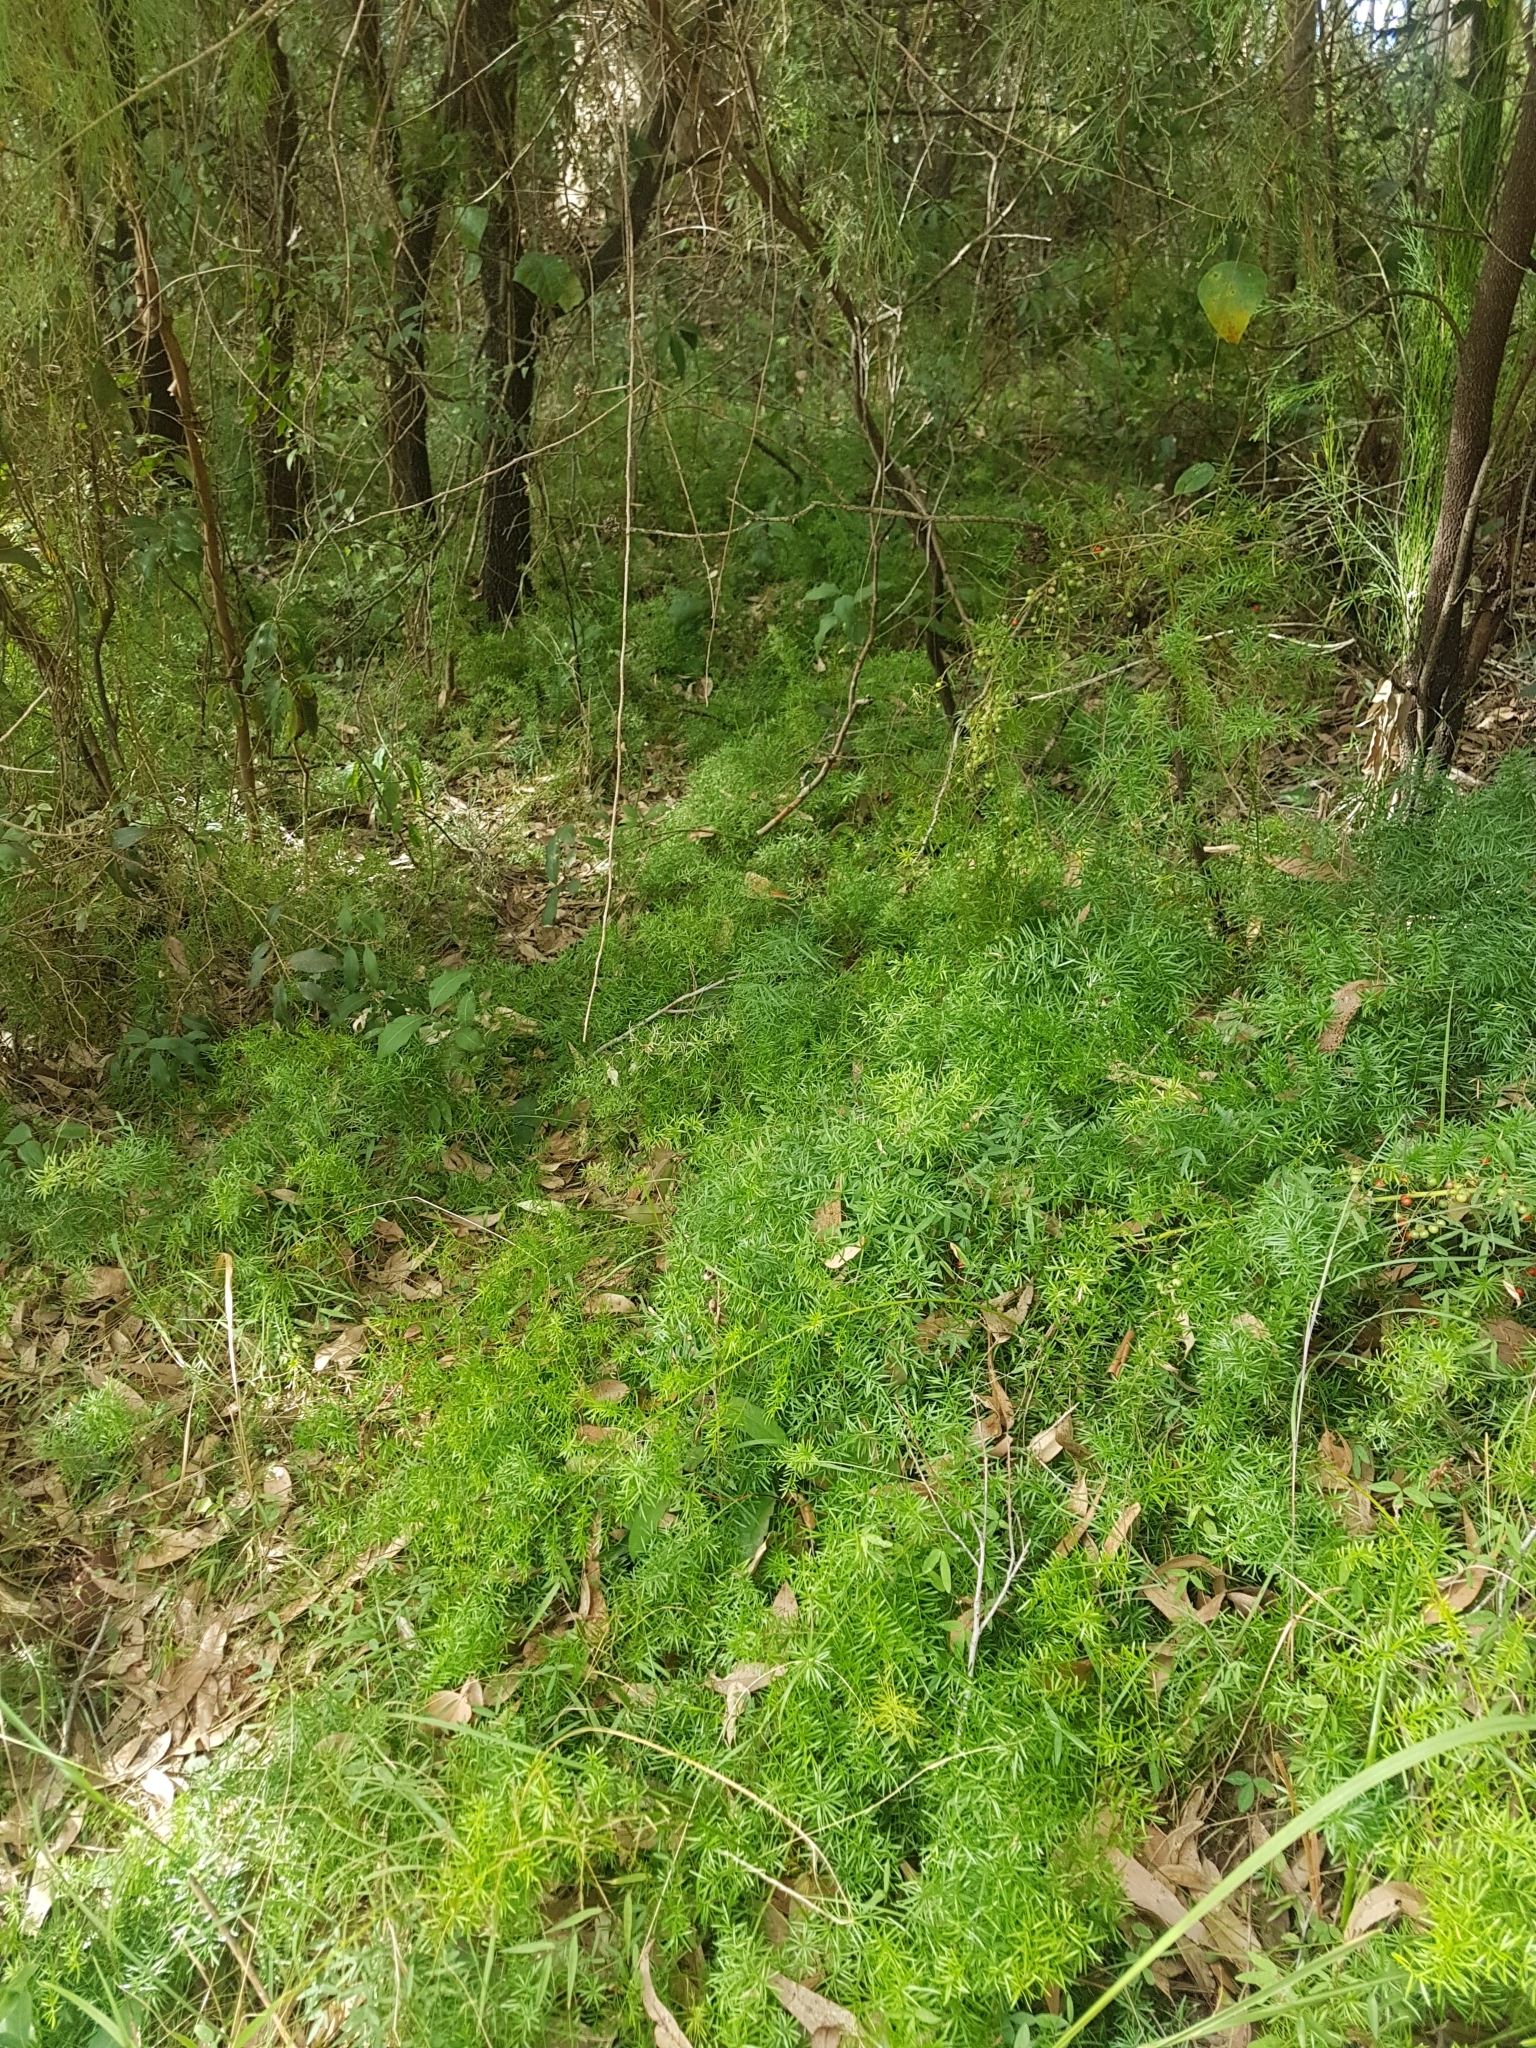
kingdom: Plantae
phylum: Tracheophyta
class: Liliopsida
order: Asparagales
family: Asparagaceae
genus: Asparagus
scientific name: Asparagus aethiopicus
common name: Sprenger's asparagus fern
